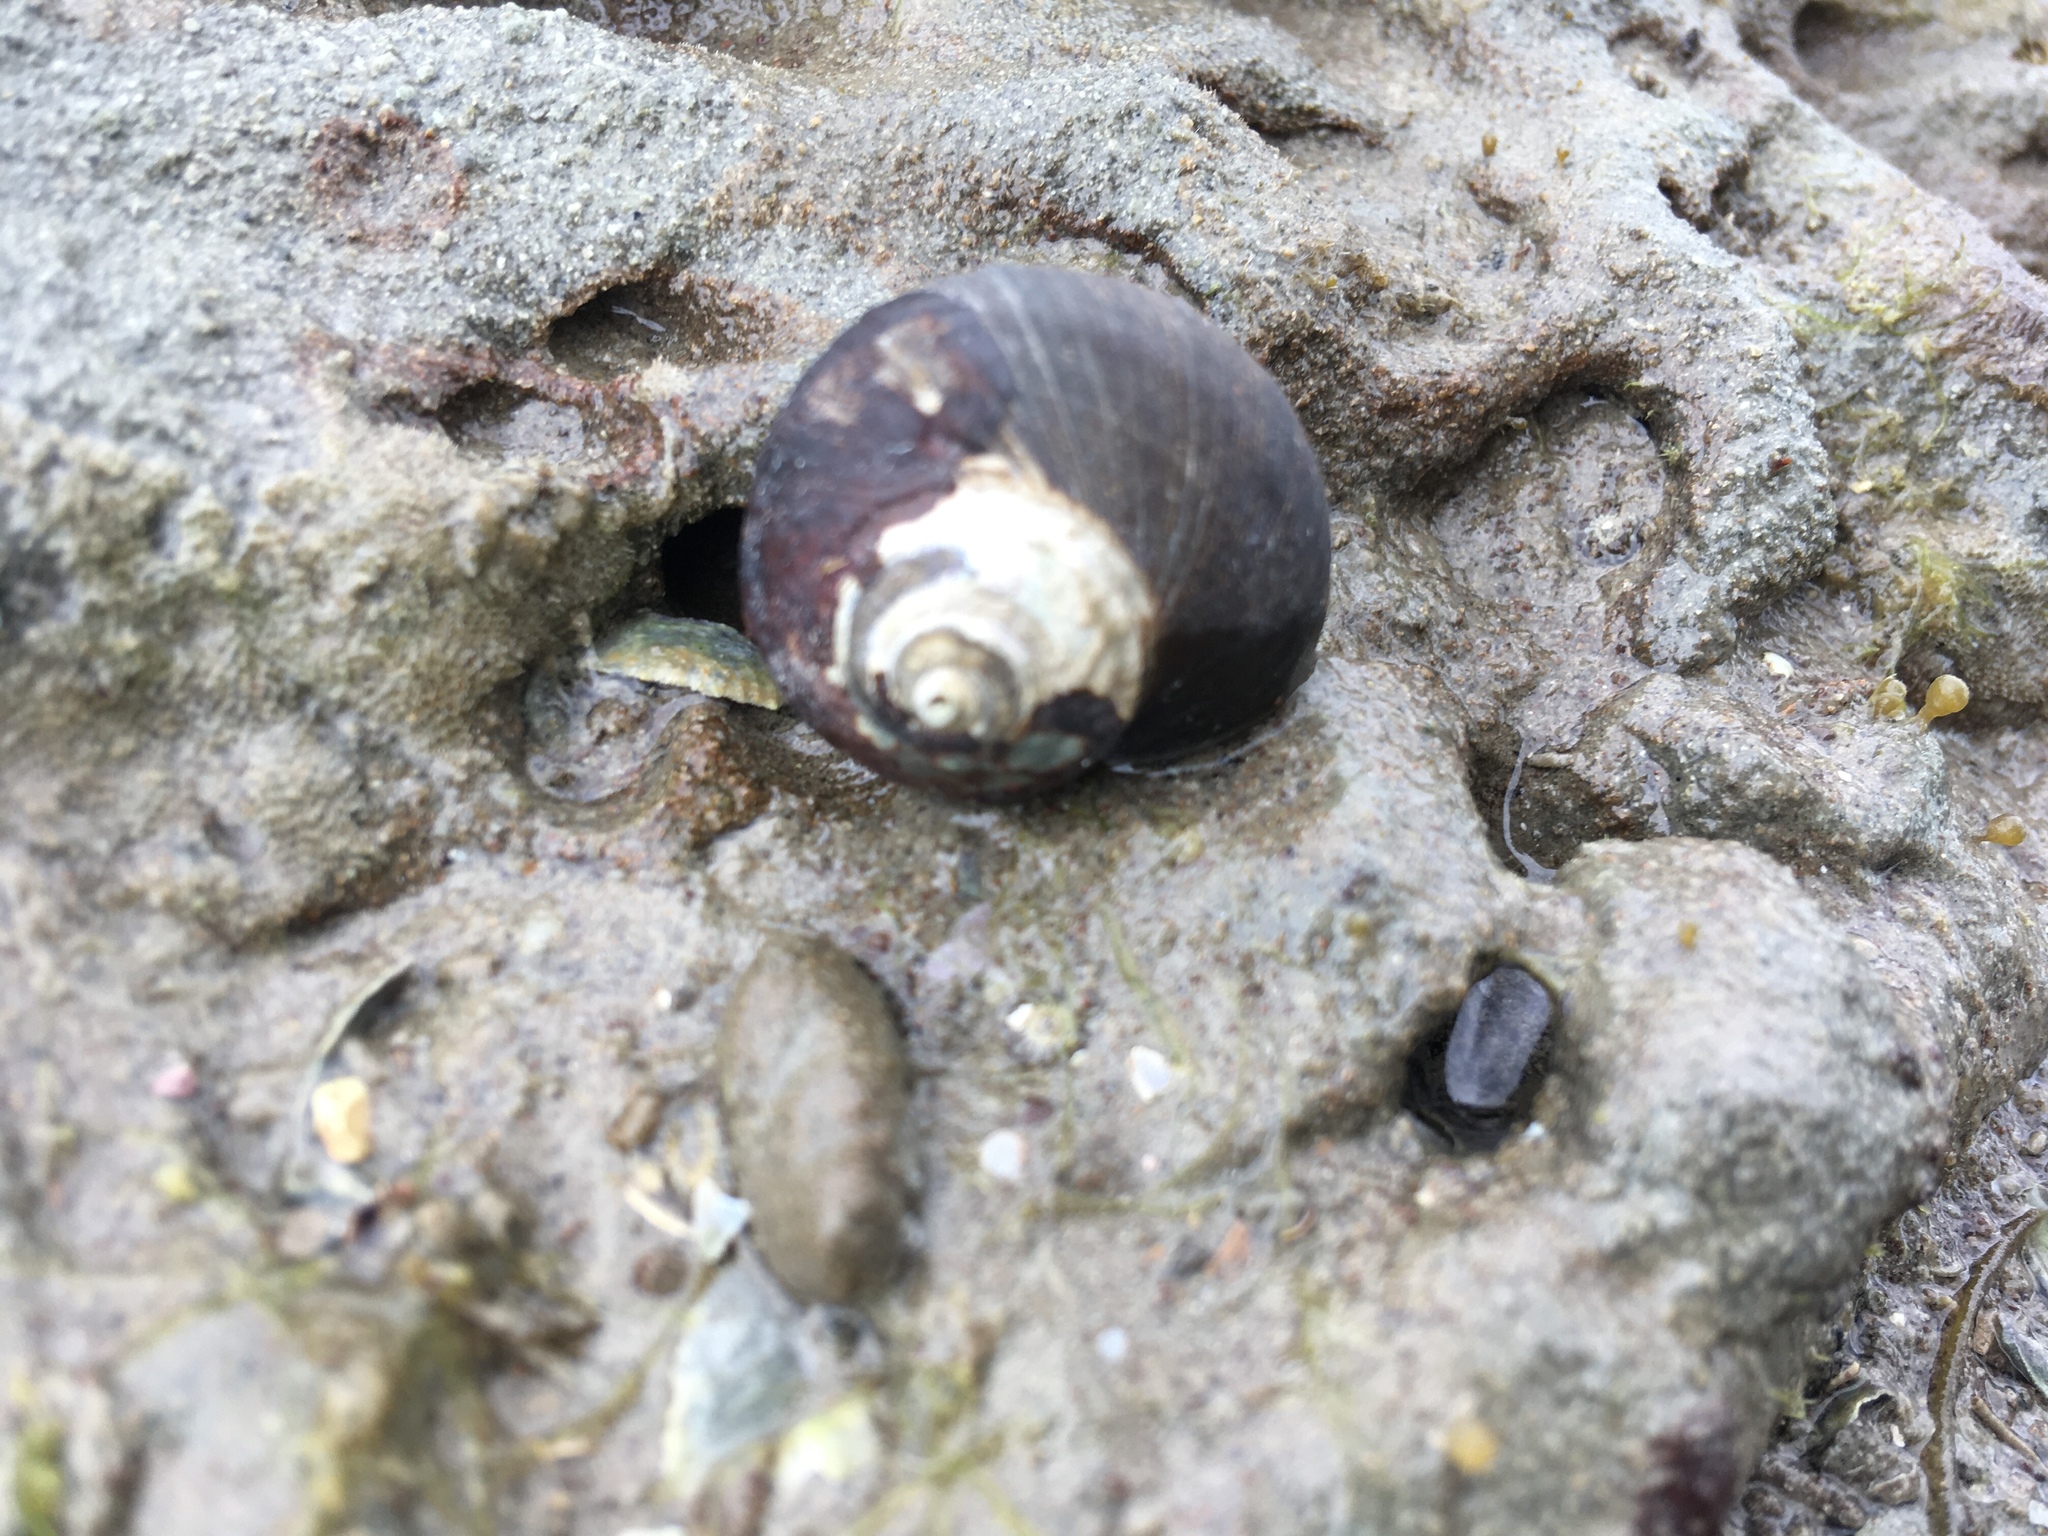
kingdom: Animalia
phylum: Mollusca
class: Gastropoda
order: Trochida
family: Turbinidae
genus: Lunella
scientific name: Lunella smaragda
